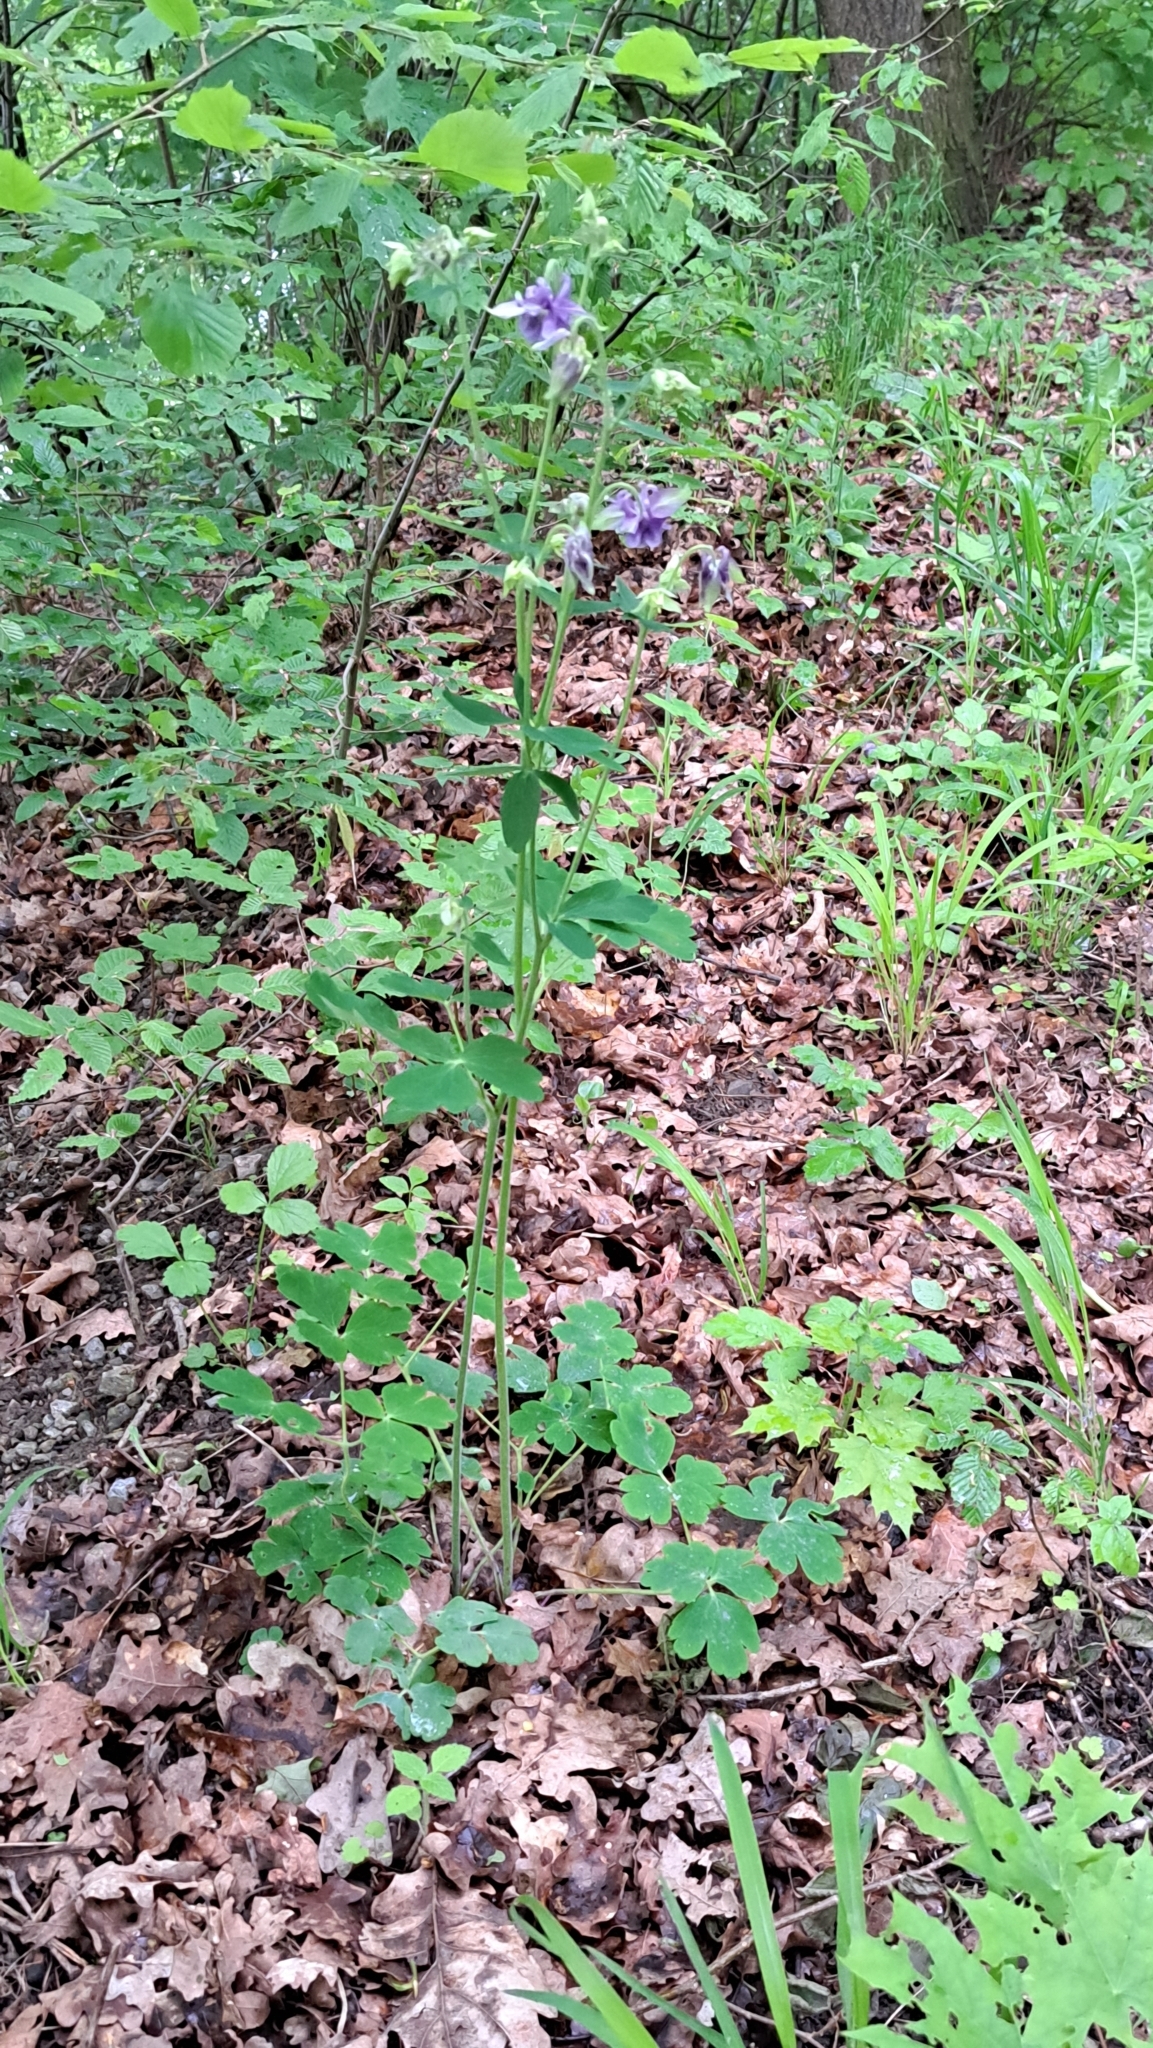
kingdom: Plantae
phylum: Tracheophyta
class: Magnoliopsida
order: Ranunculales
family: Ranunculaceae
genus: Aquilegia
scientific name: Aquilegia vulgaris
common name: Columbine
